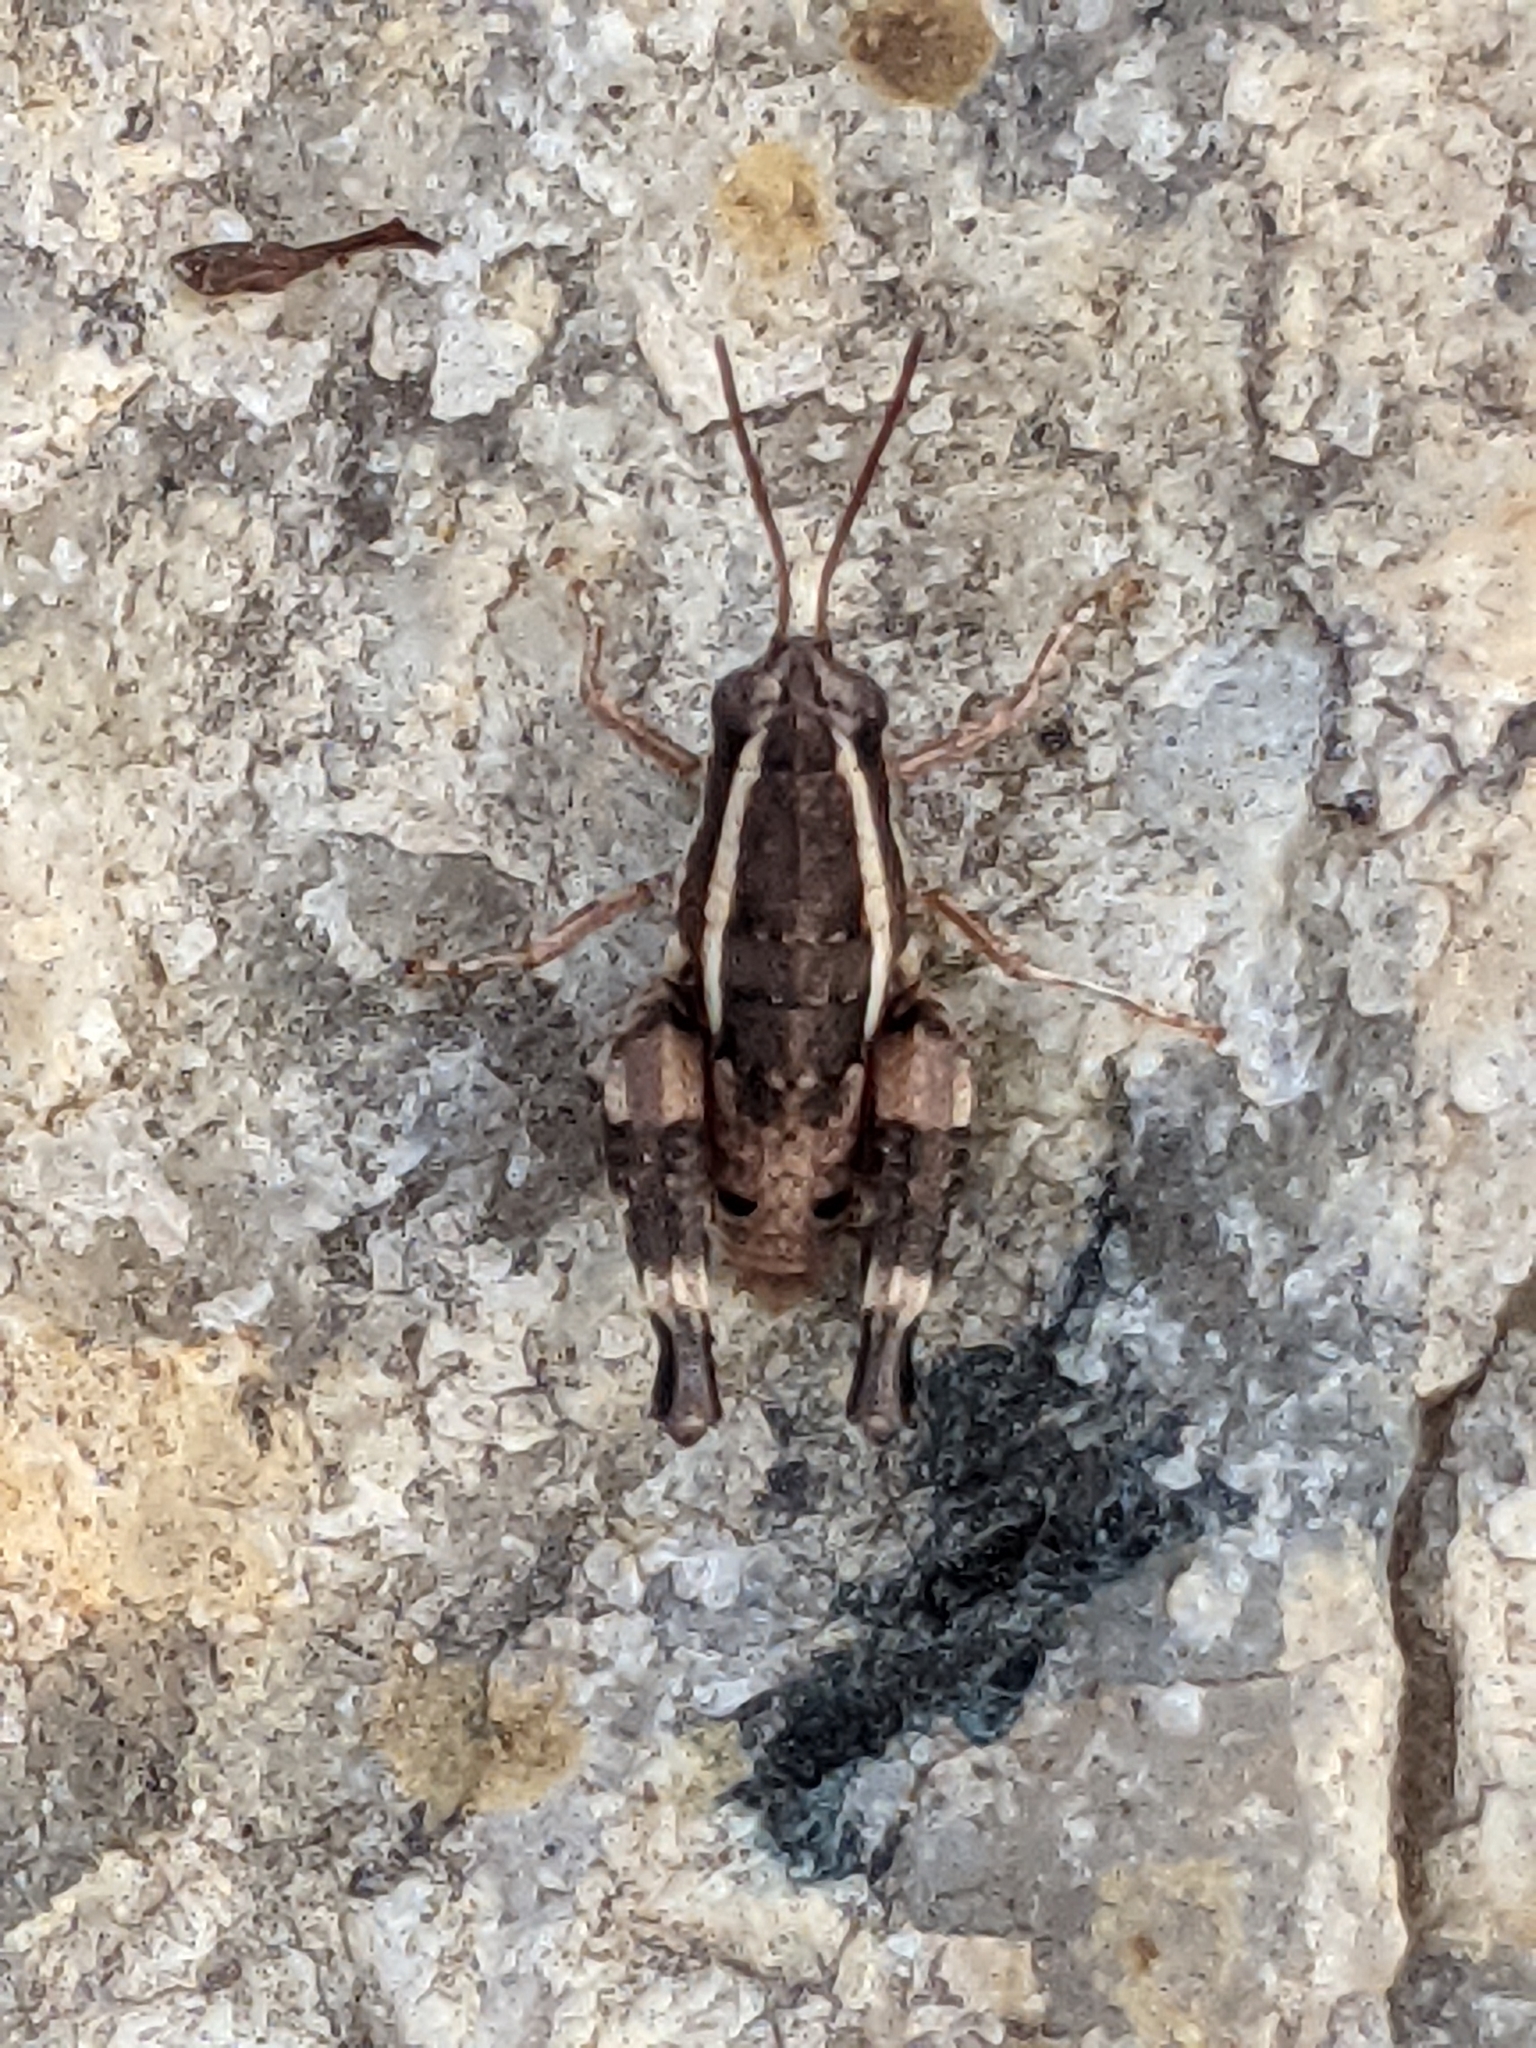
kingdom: Animalia
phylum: Arthropoda
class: Insecta
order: Orthoptera
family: Acrididae
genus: Opharicus
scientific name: Opharicus ballardi
